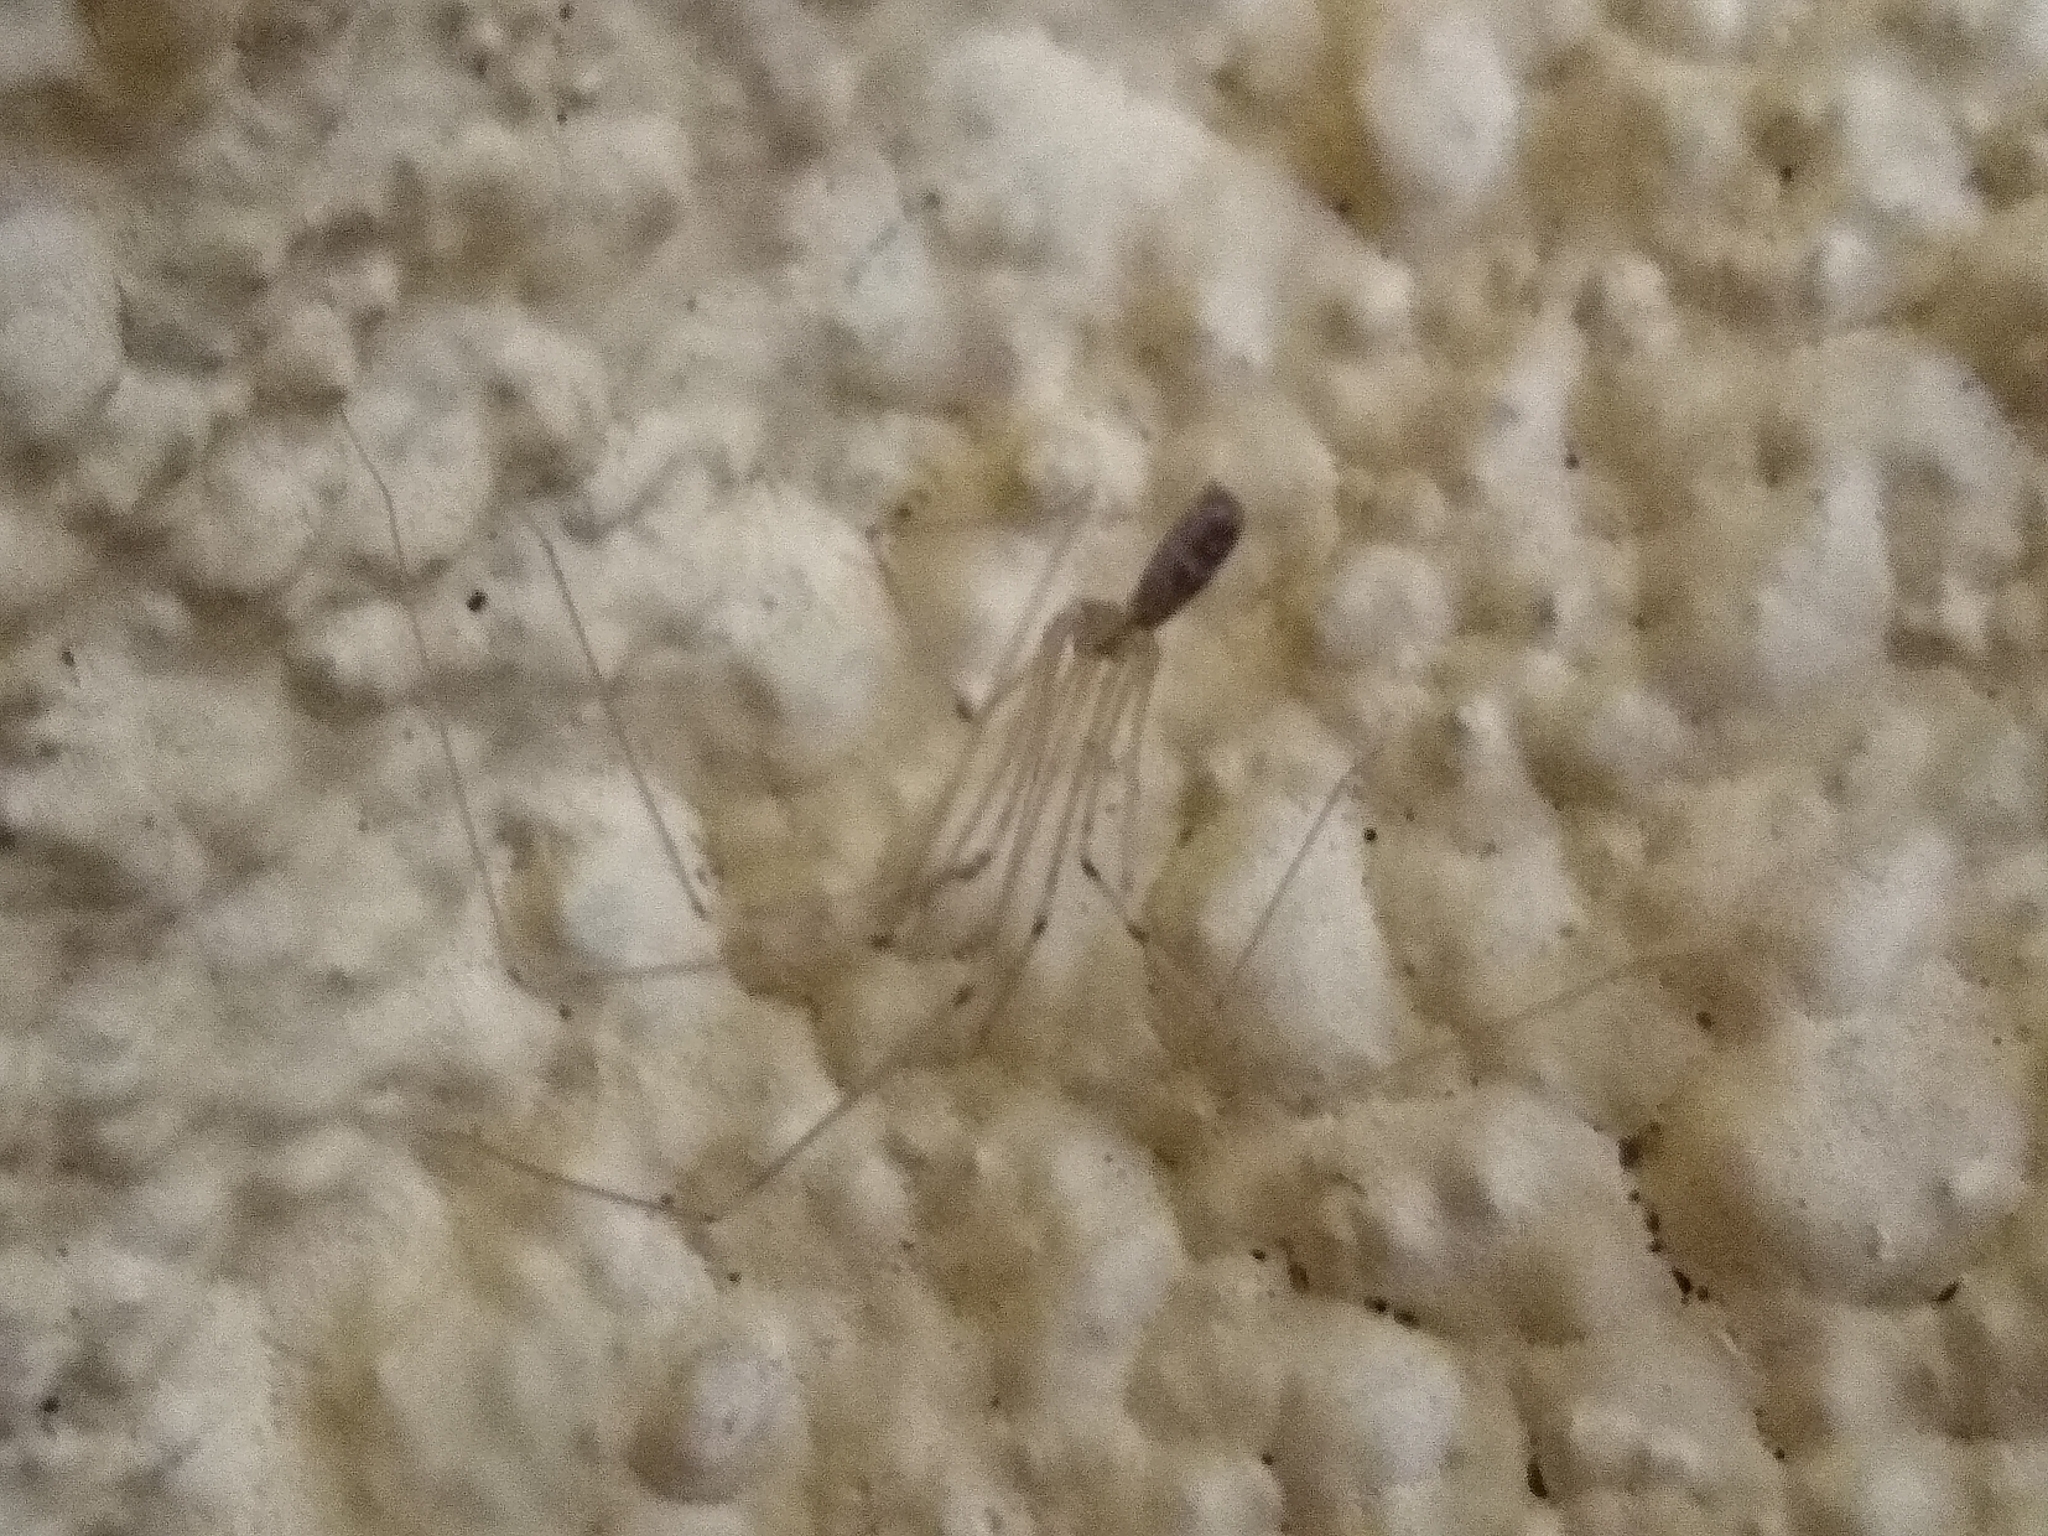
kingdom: Animalia
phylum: Arthropoda
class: Arachnida
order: Araneae
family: Pholcidae
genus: Pholcus
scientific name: Pholcus phalangioides
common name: Longbodied cellar spider
